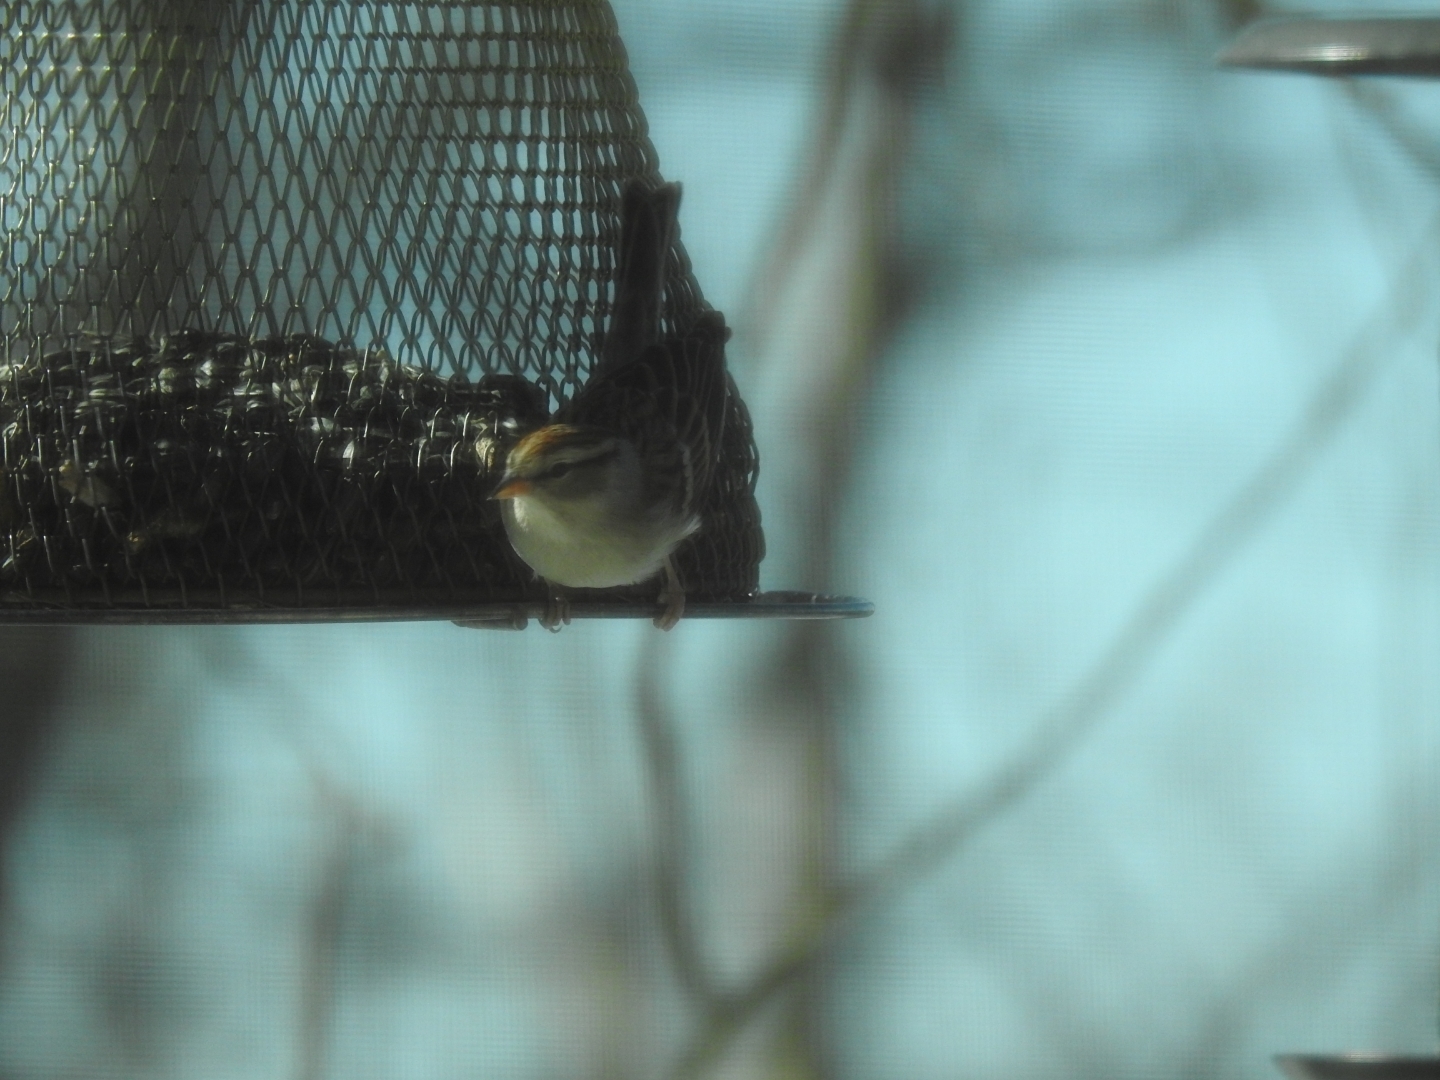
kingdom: Animalia
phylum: Chordata
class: Aves
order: Passeriformes
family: Passerellidae
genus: Spizella
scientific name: Spizella passerina
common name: Chipping sparrow
